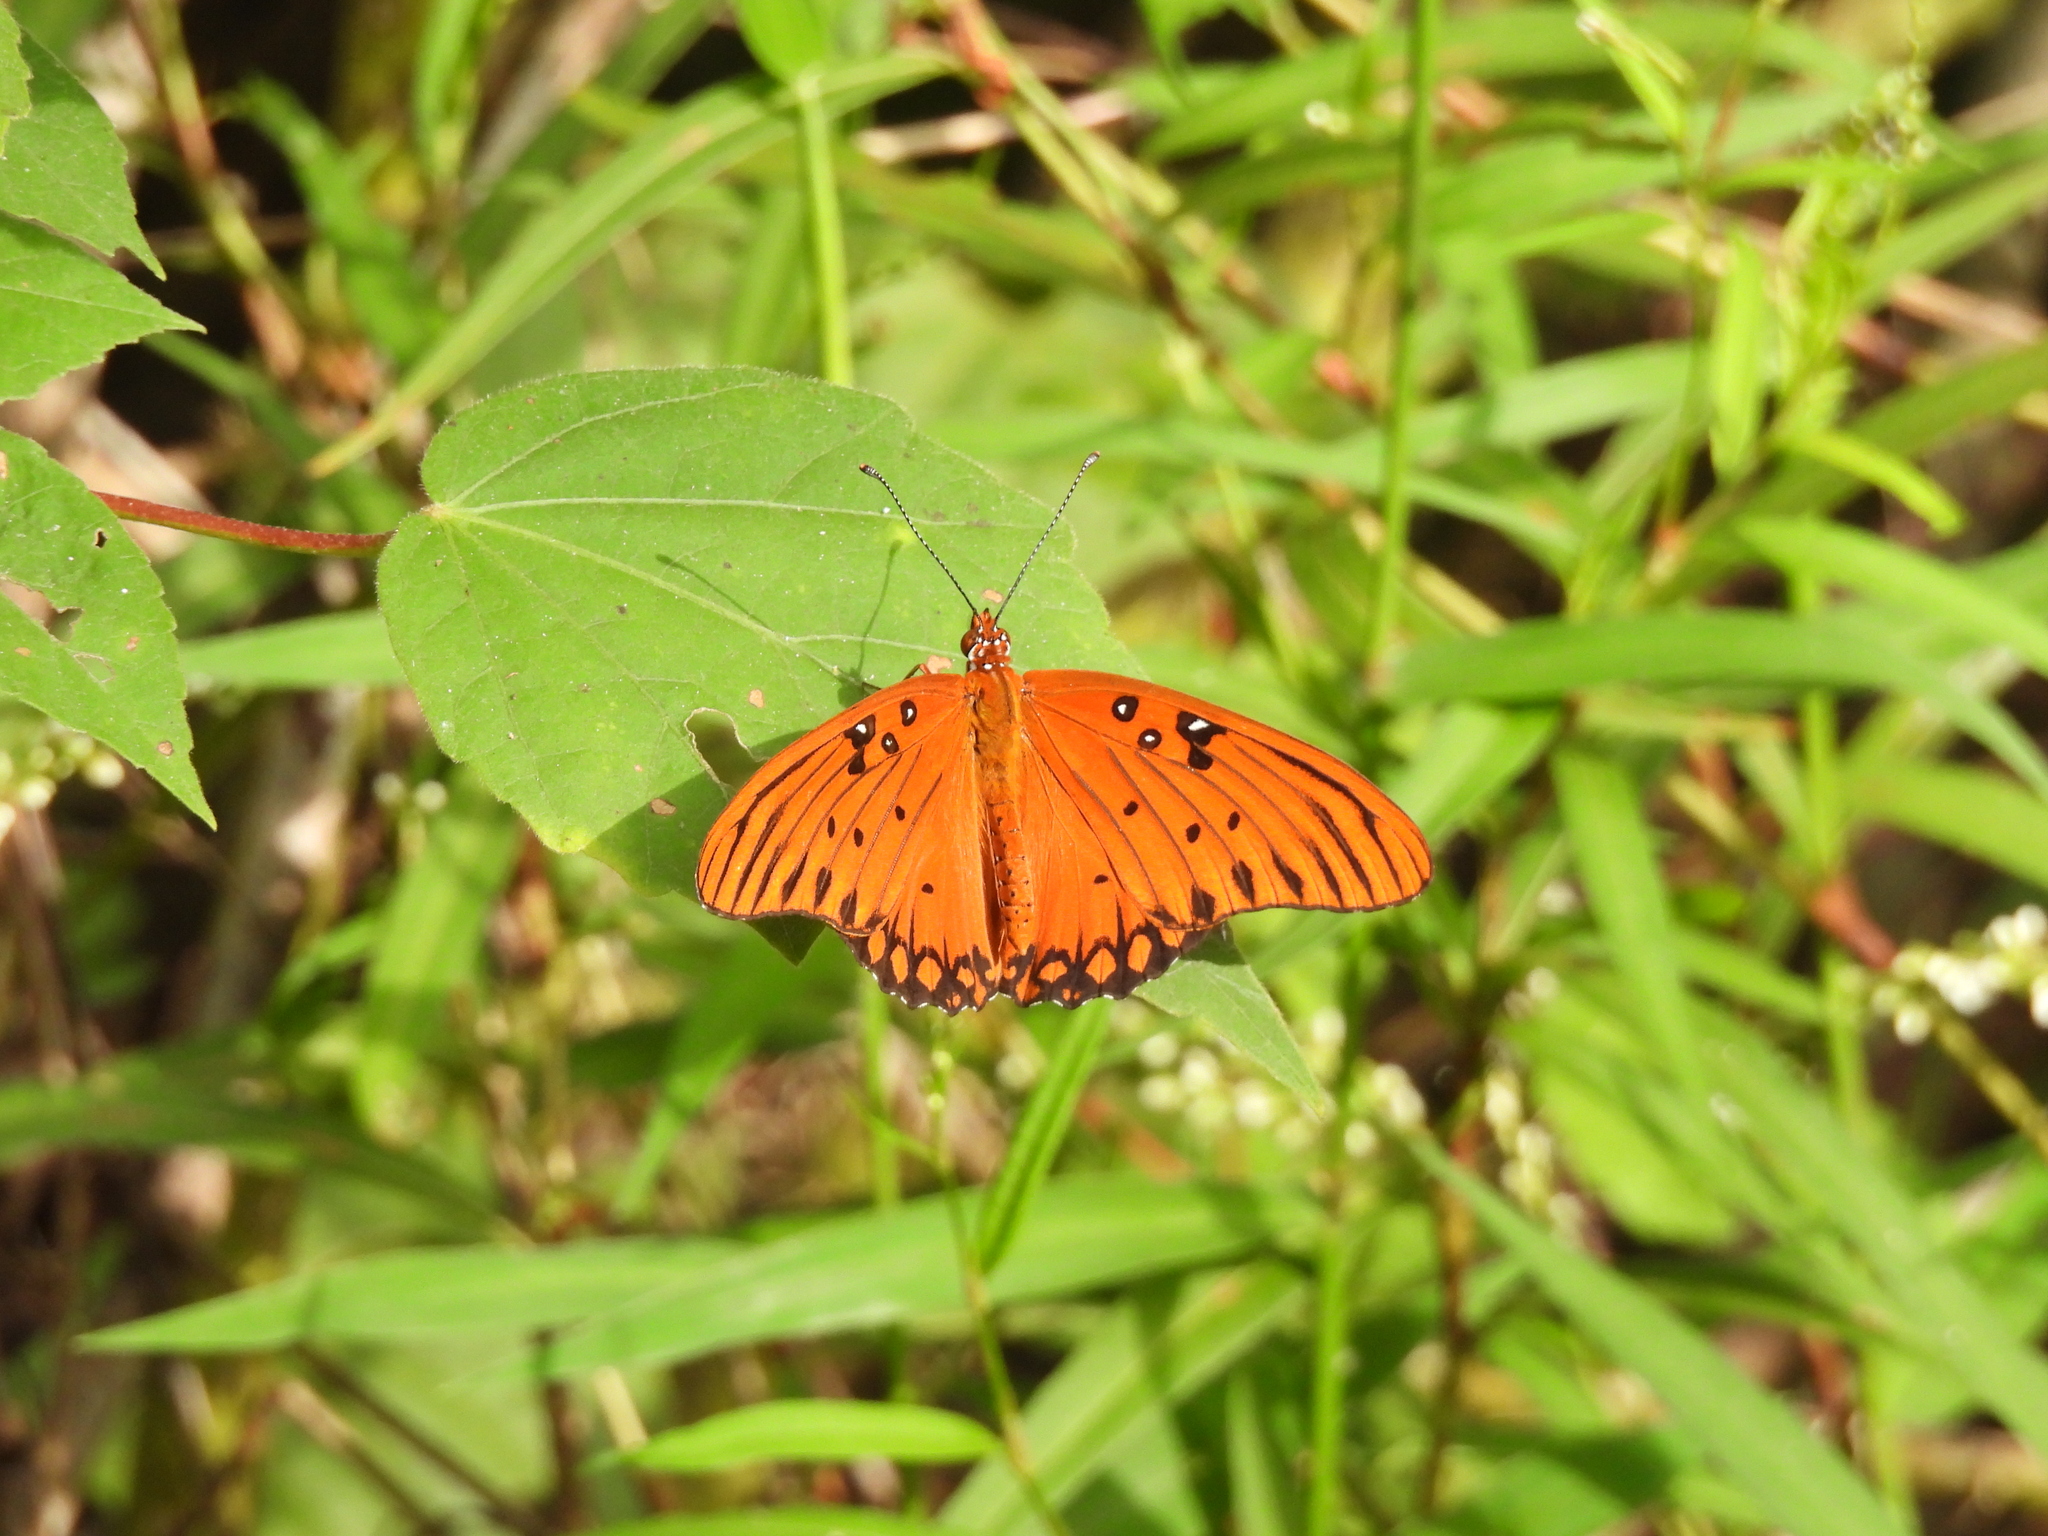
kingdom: Animalia
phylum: Arthropoda
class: Insecta
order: Lepidoptera
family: Nymphalidae
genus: Dione
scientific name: Dione vanillae
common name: Gulf fritillary
